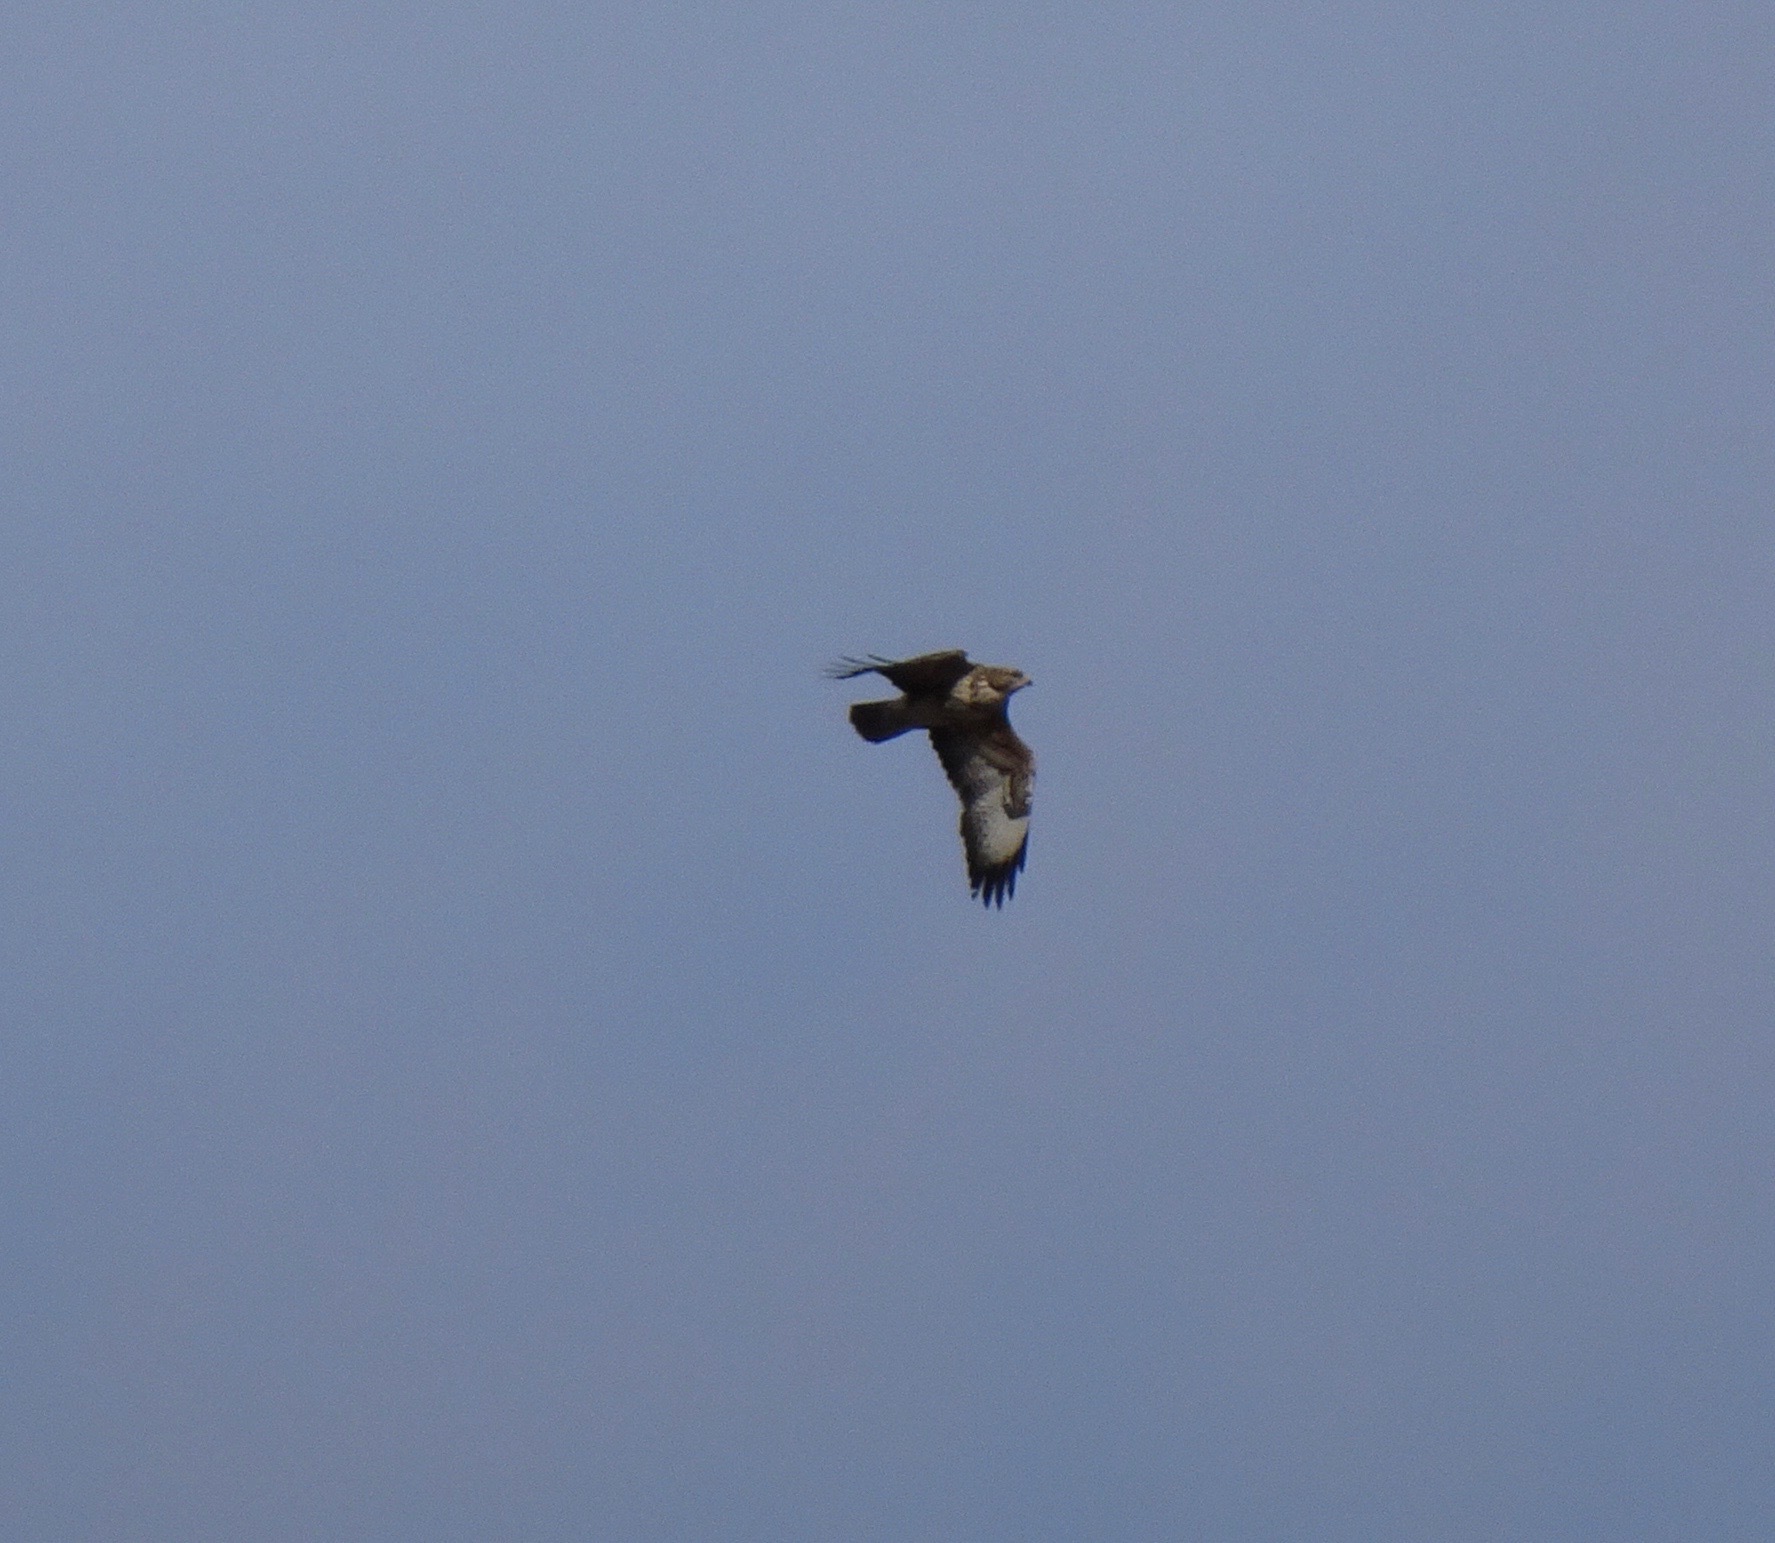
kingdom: Animalia
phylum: Chordata
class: Aves
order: Accipitriformes
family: Accipitridae
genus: Buteo
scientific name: Buteo buteo
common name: Common buzzard
